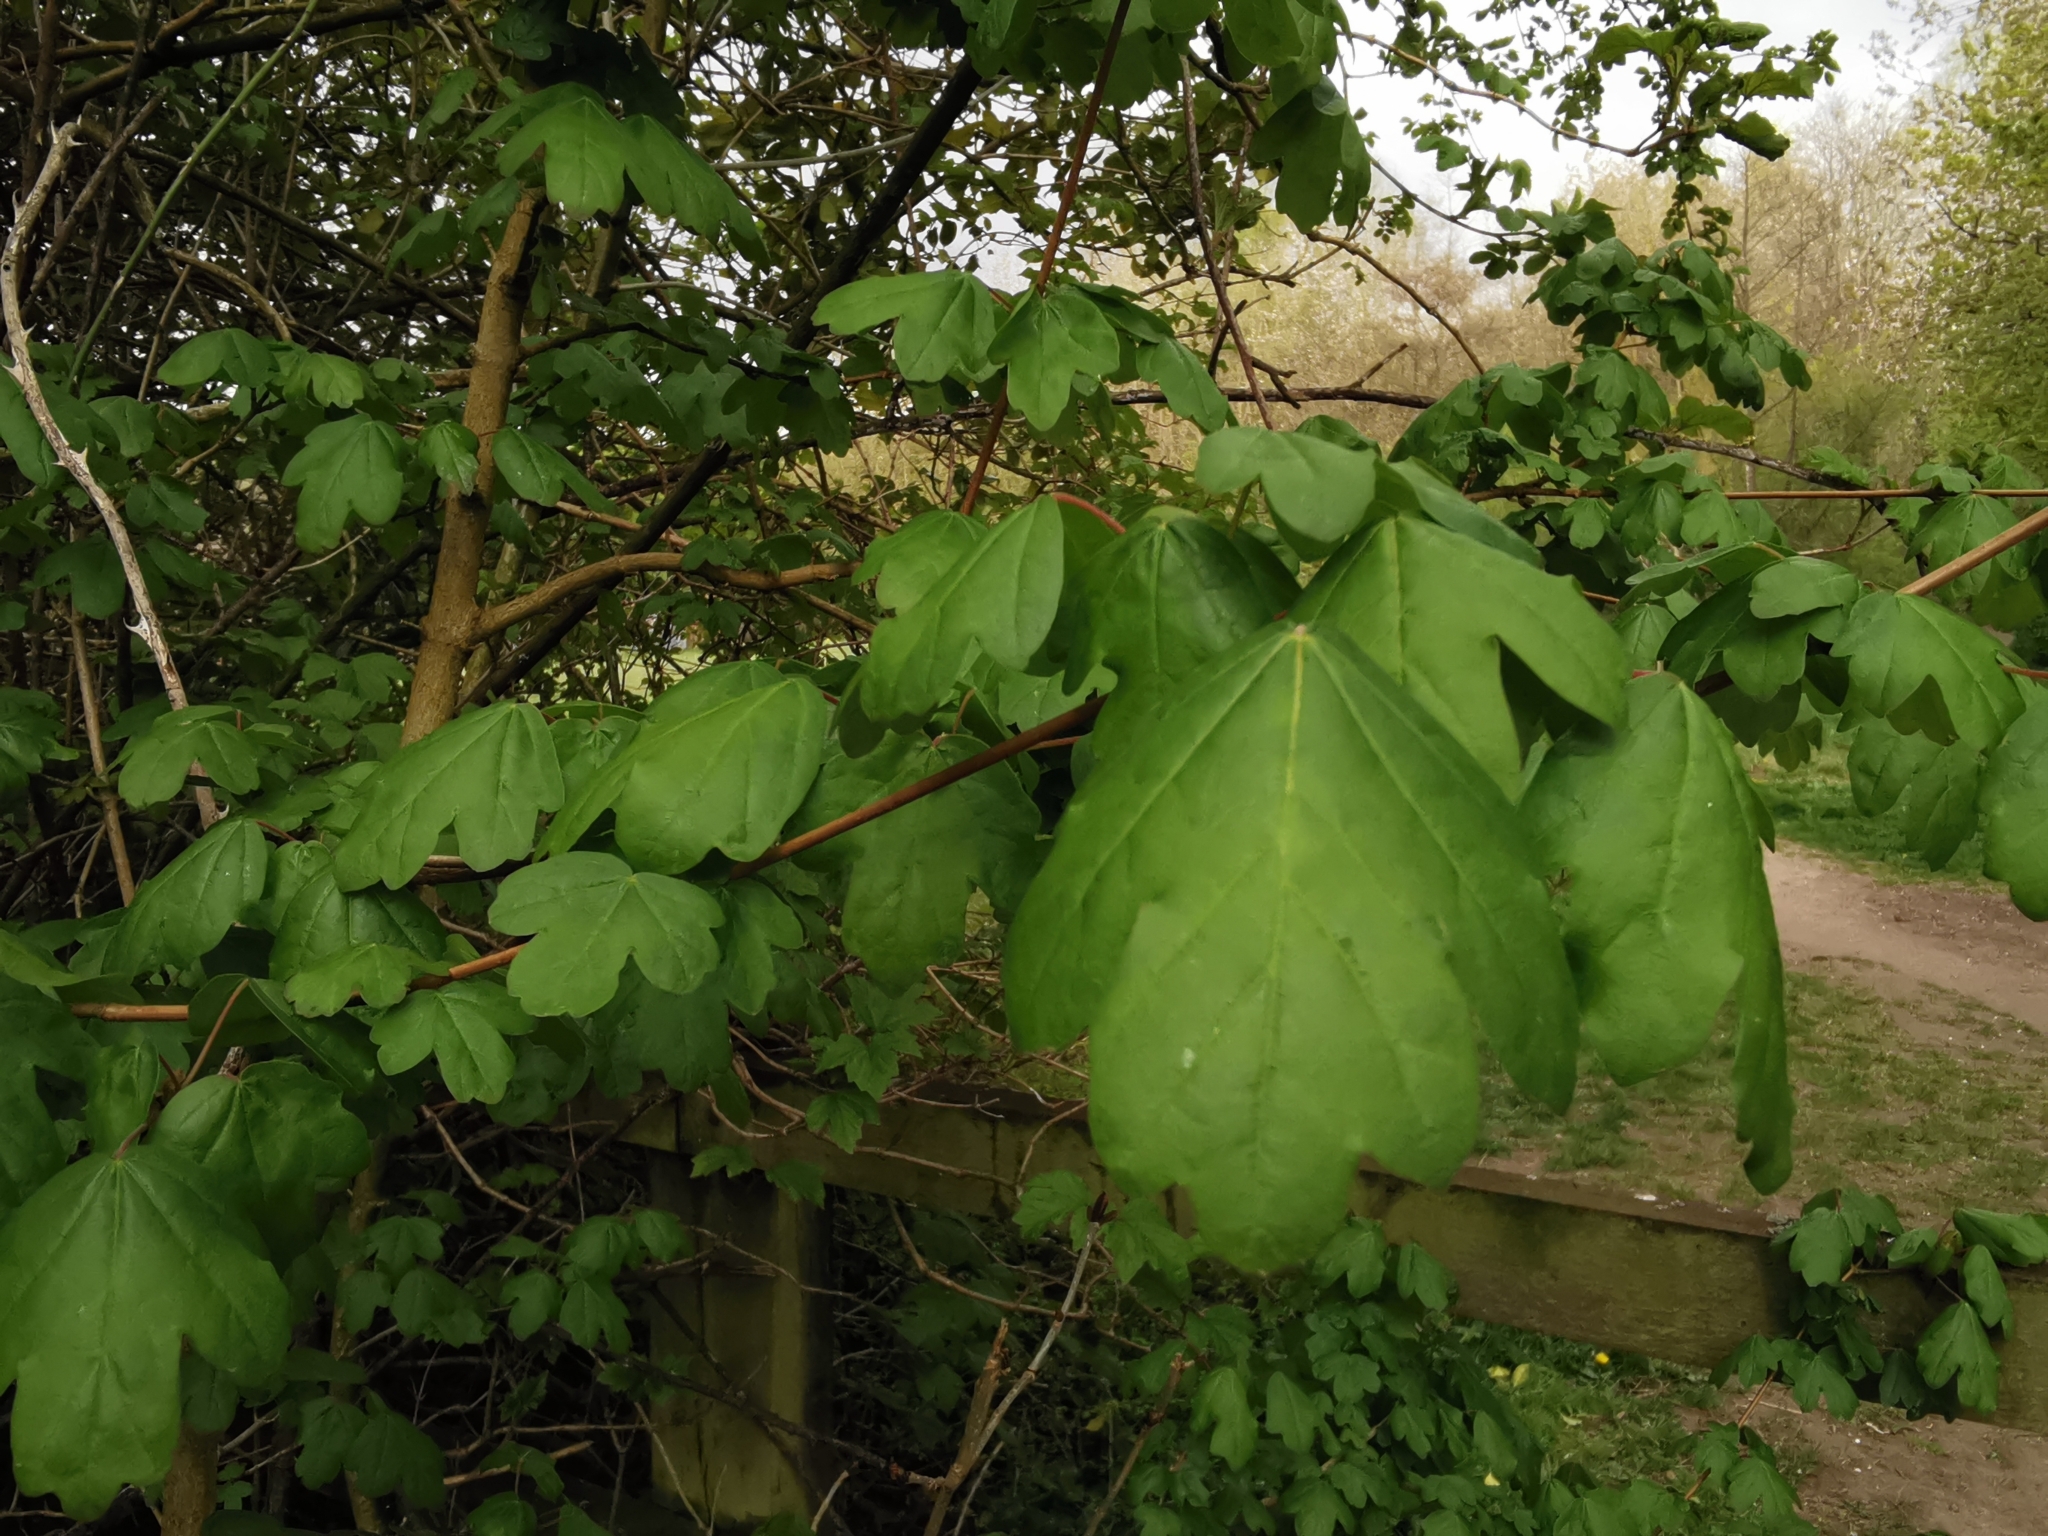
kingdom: Plantae
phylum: Tracheophyta
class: Magnoliopsida
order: Sapindales
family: Sapindaceae
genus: Acer
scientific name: Acer campestre
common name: Field maple
